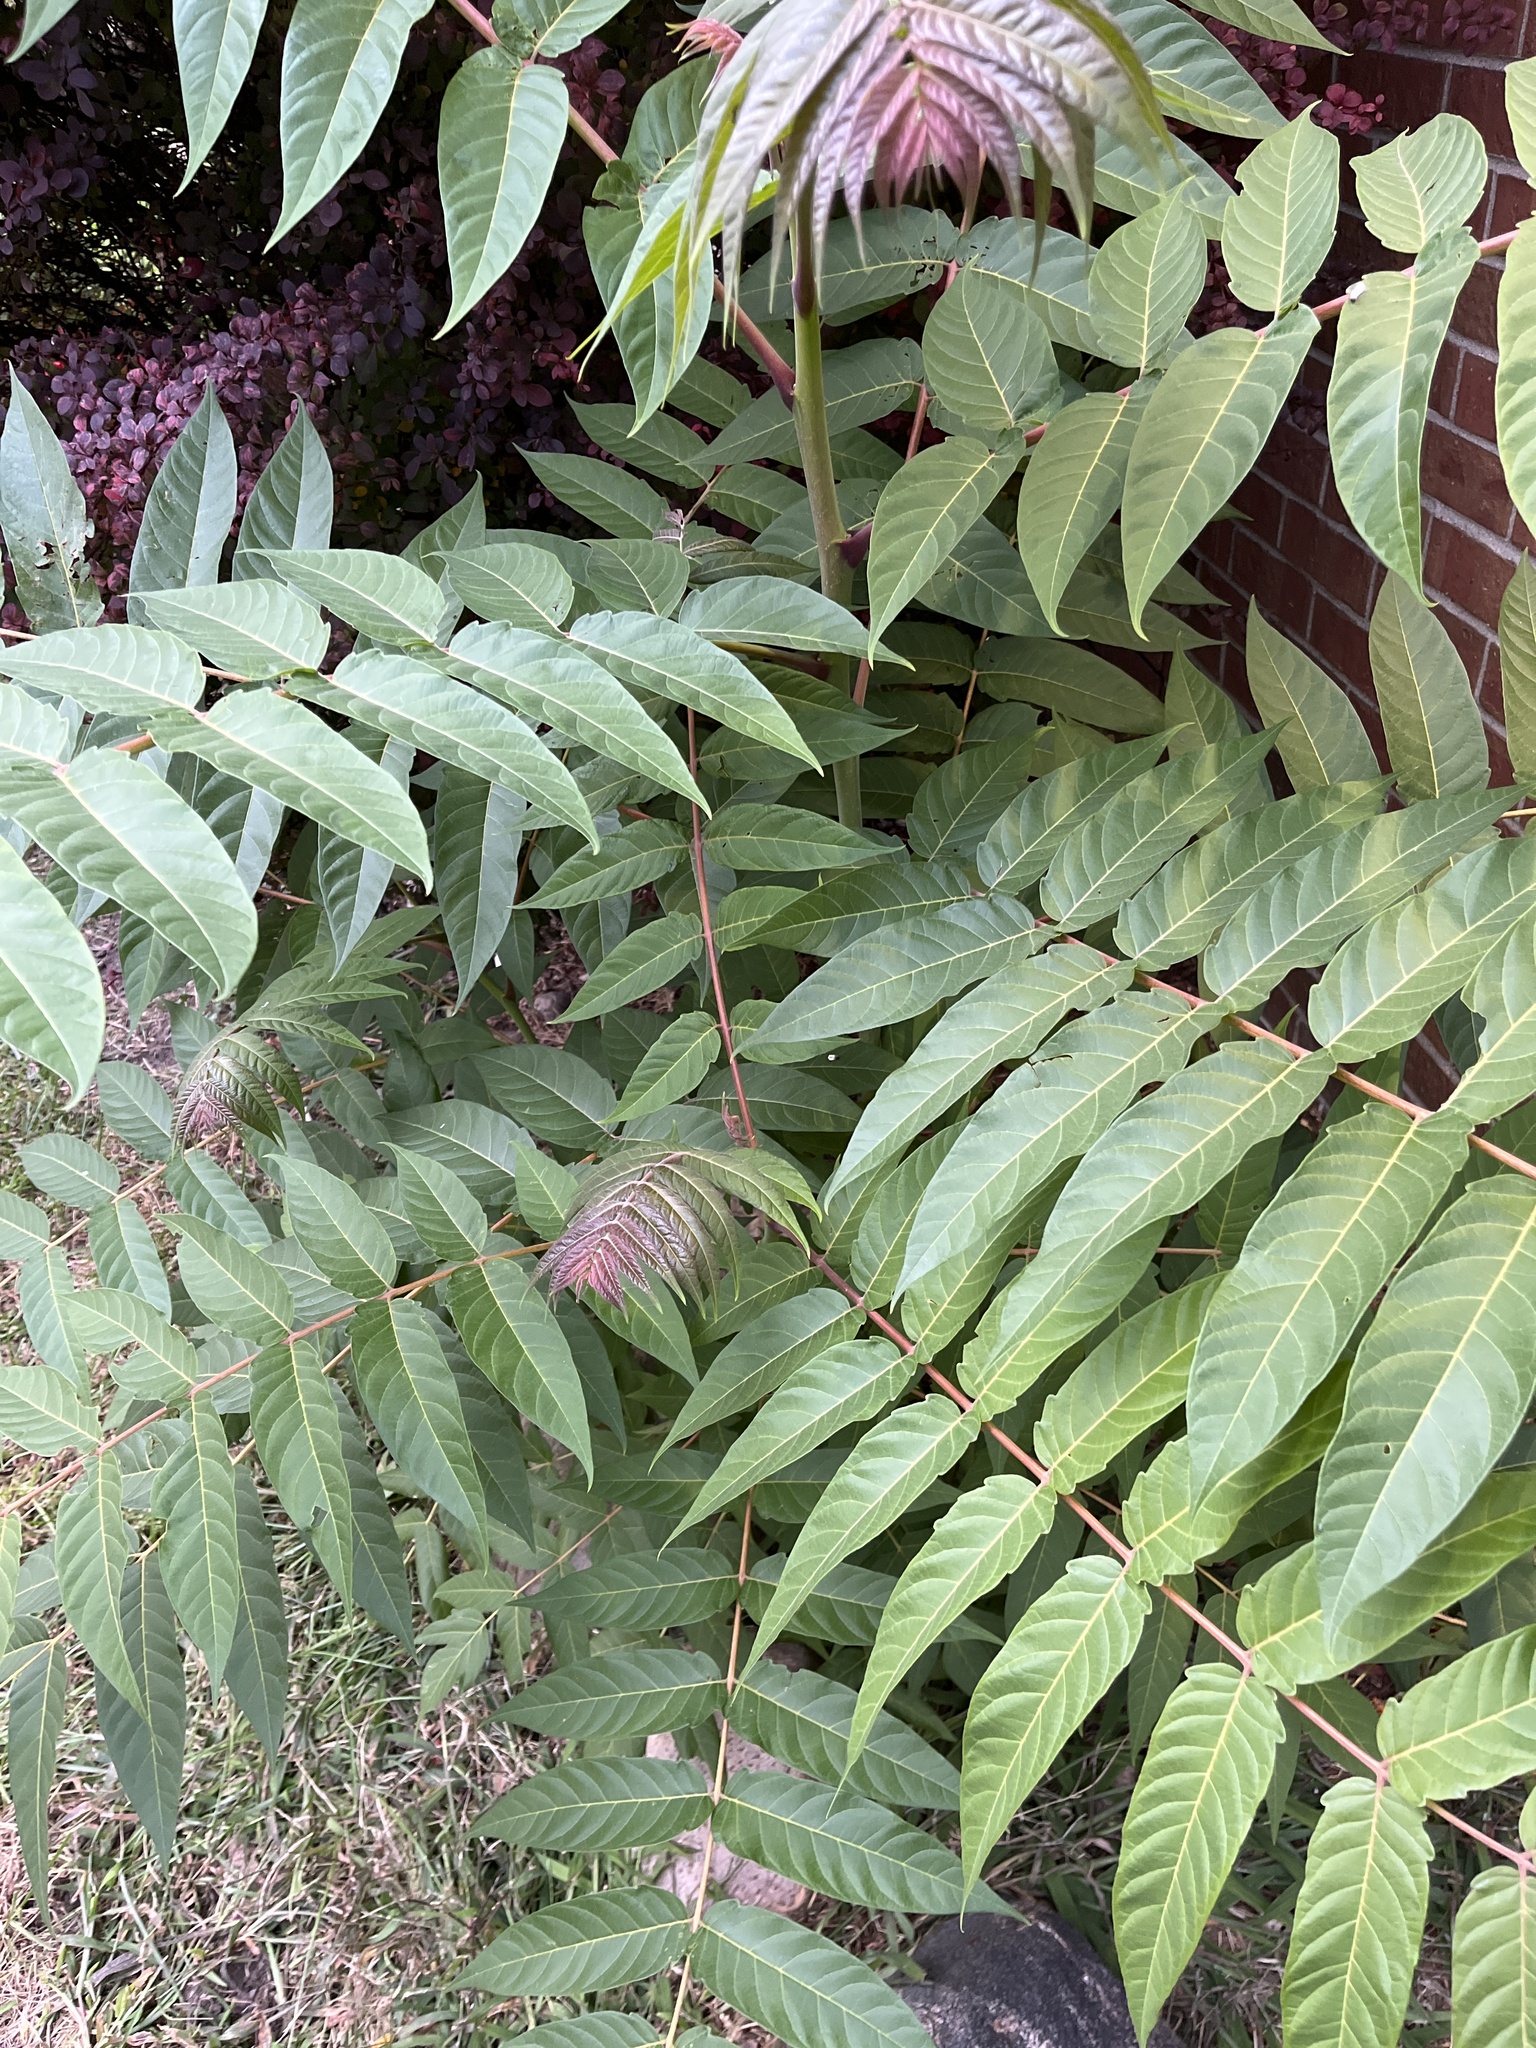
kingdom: Plantae
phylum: Tracheophyta
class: Magnoliopsida
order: Sapindales
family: Simaroubaceae
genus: Ailanthus
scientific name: Ailanthus altissima
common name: Tree-of-heaven
